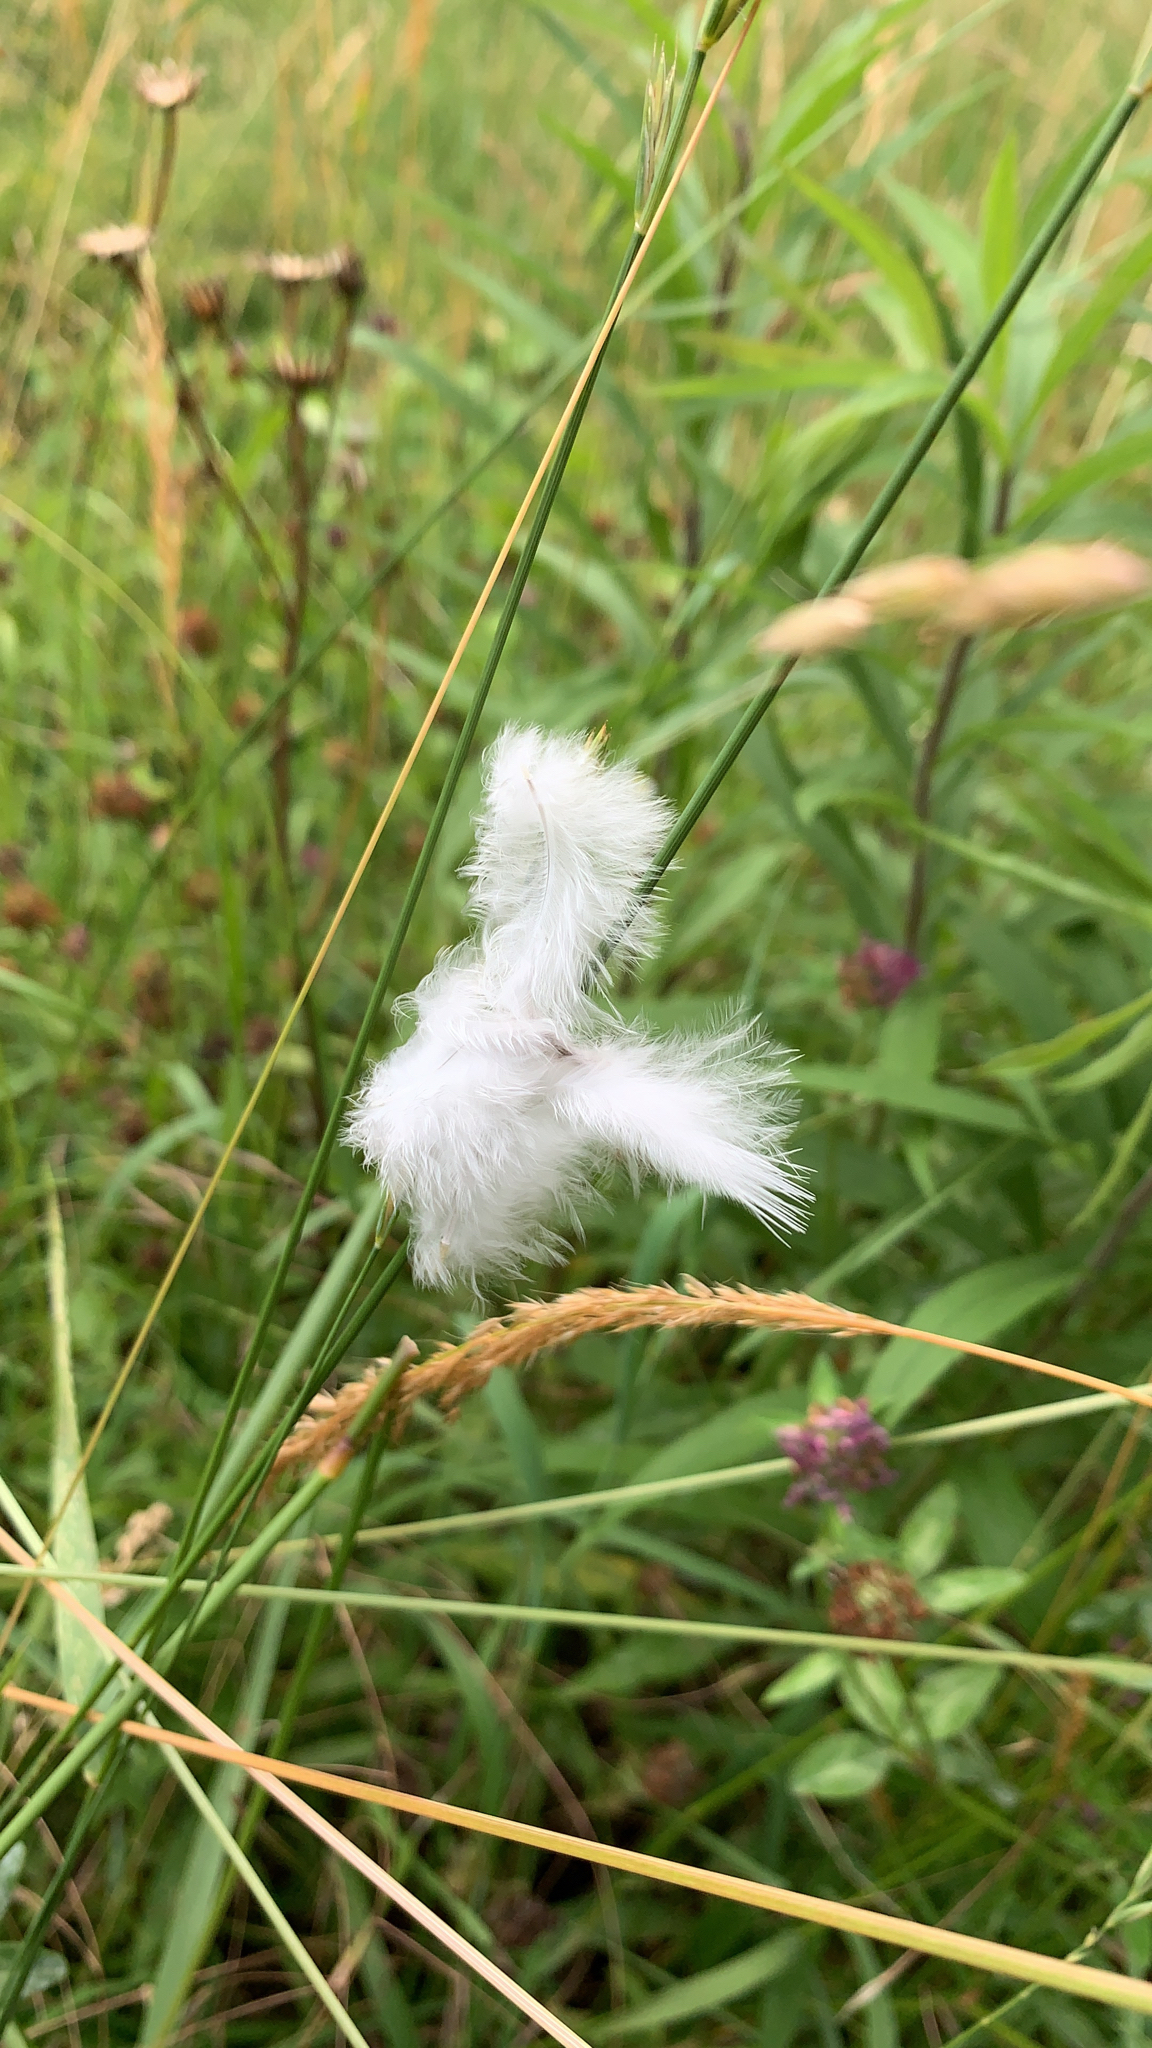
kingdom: Plantae
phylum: Tracheophyta
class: Liliopsida
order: Poales
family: Cyperaceae
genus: Eriophorum
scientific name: Eriophorum angustifolium
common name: Common cottongrass
